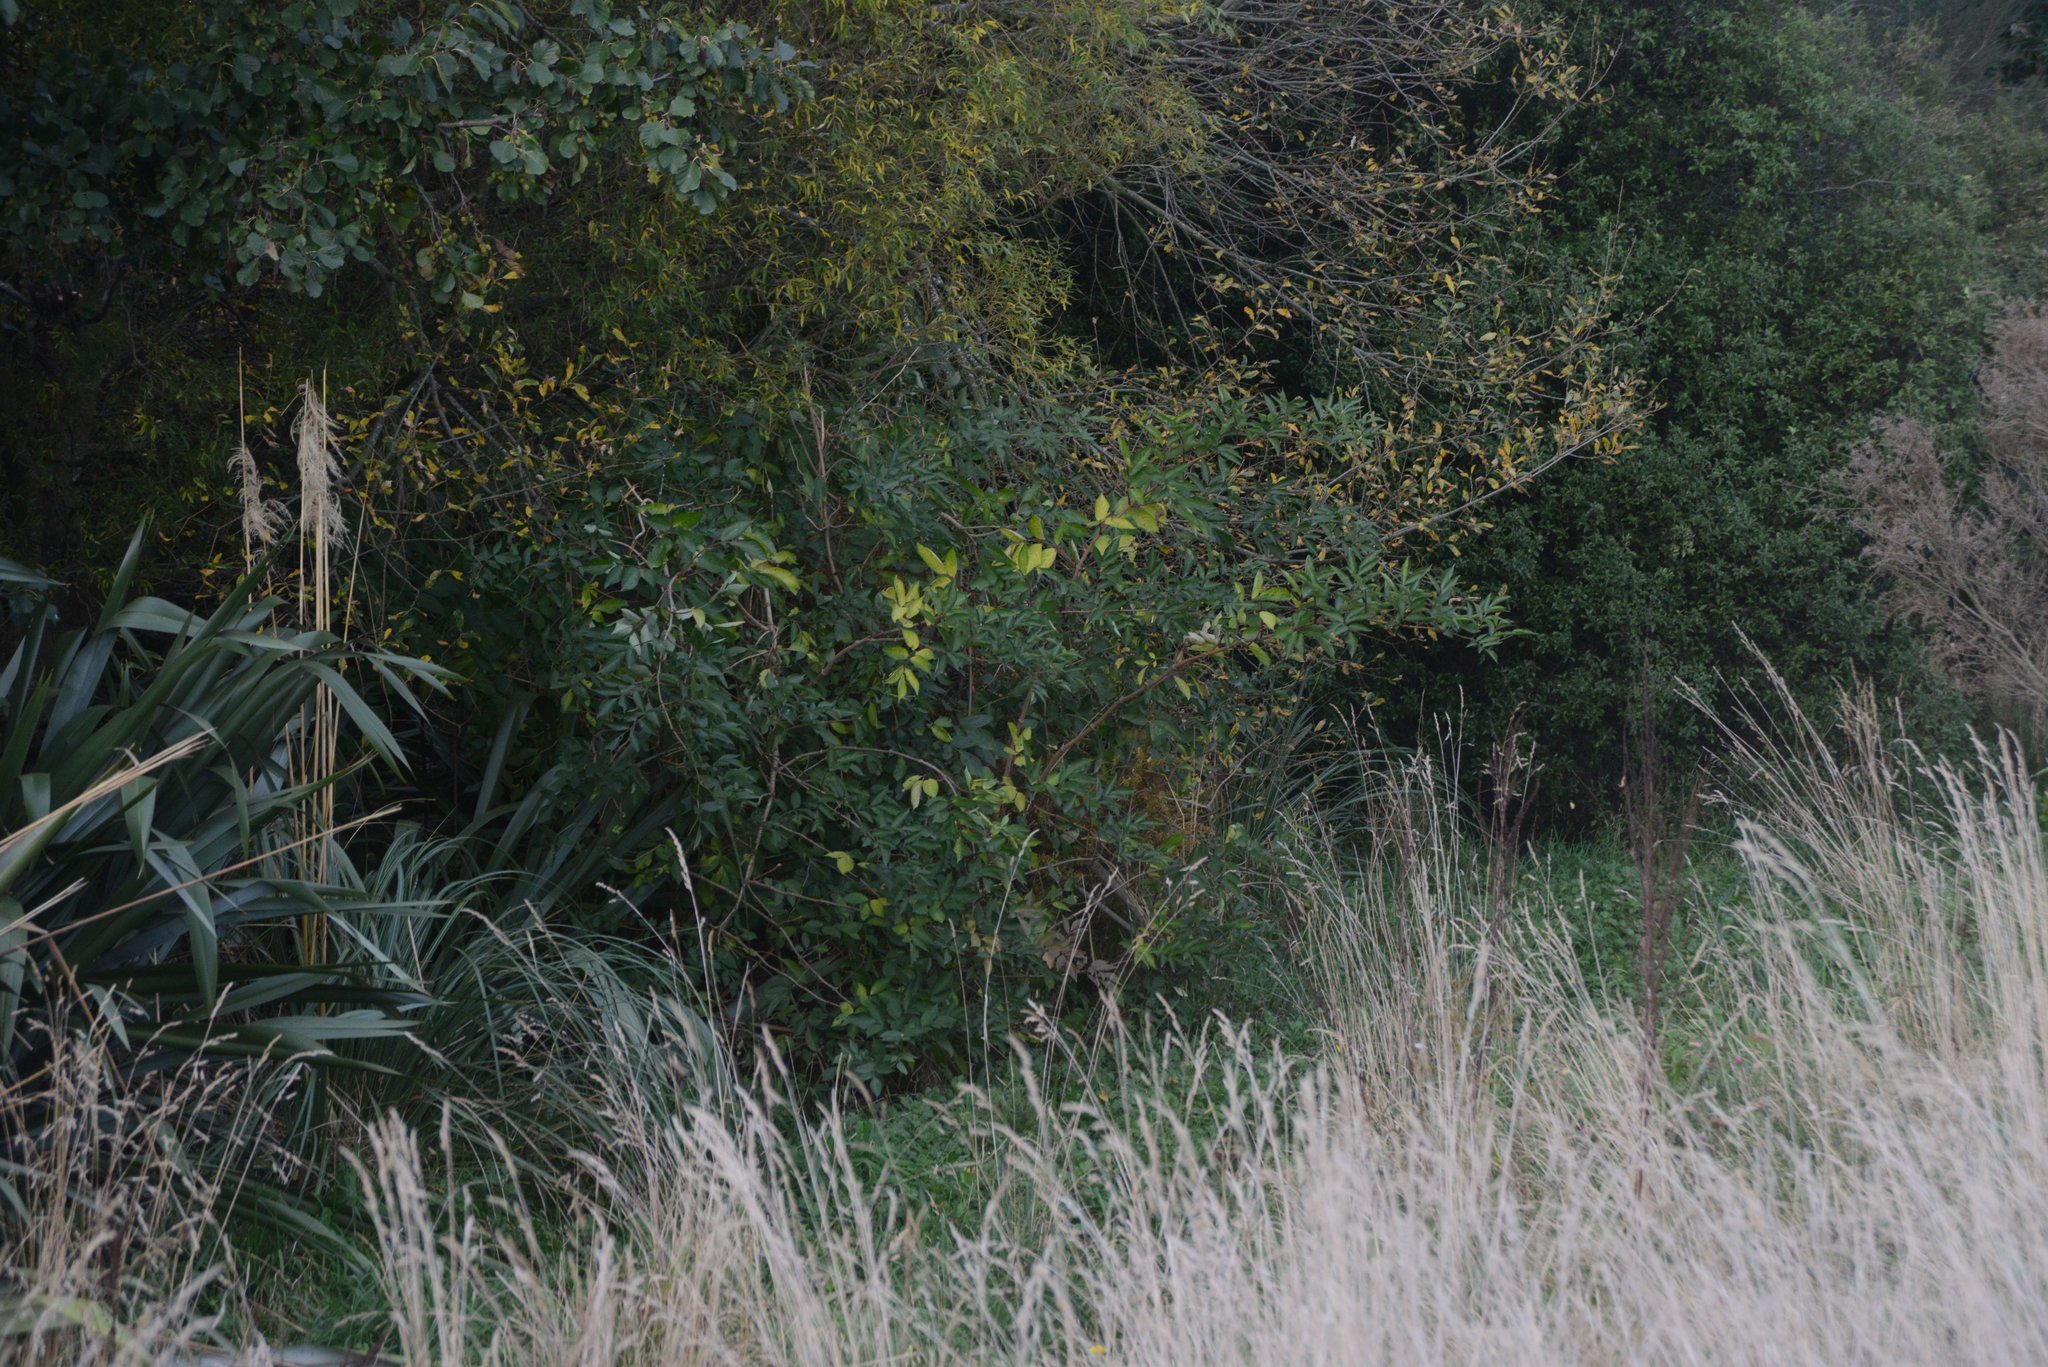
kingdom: Plantae
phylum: Tracheophyta
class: Magnoliopsida
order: Dipsacales
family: Viburnaceae
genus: Sambucus
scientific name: Sambucus nigra
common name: Elder
